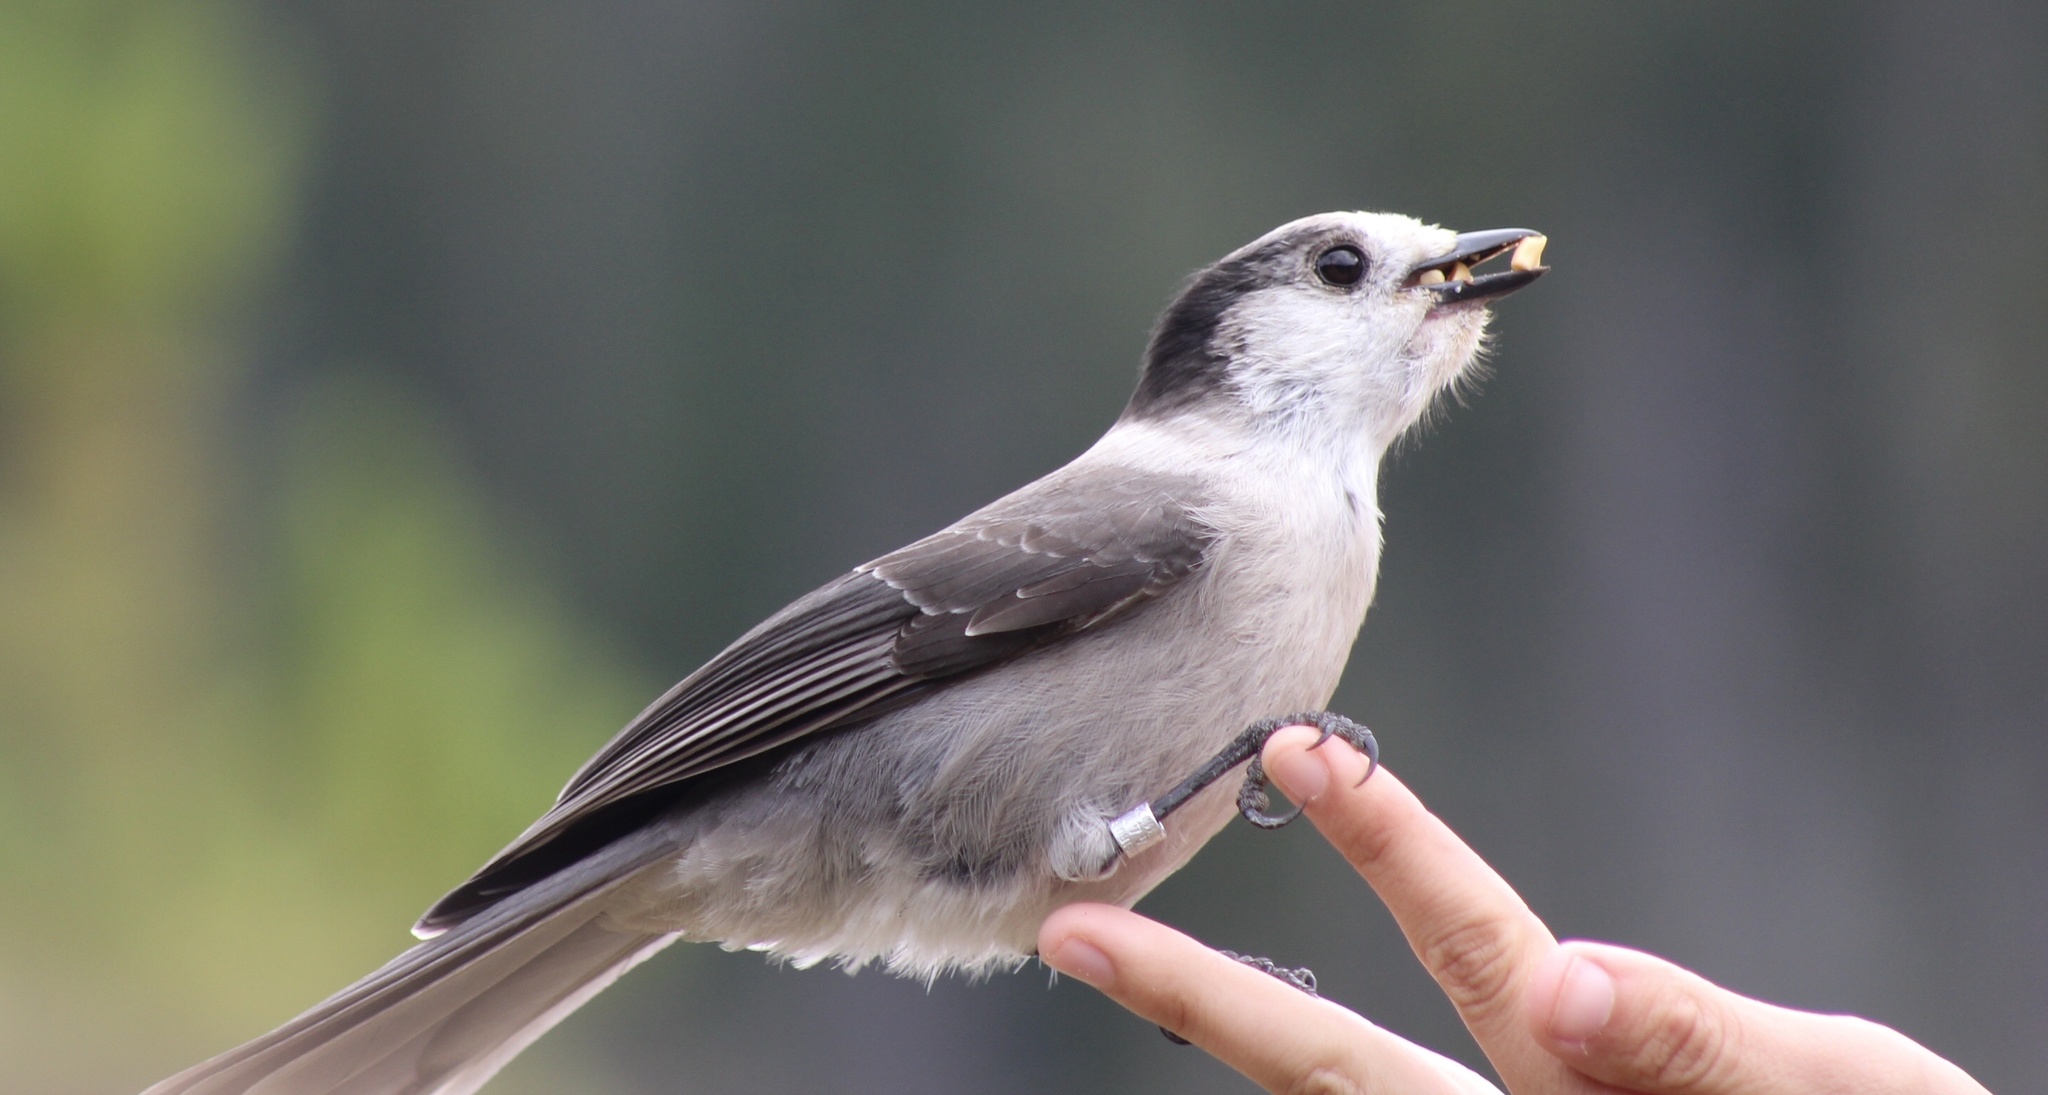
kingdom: Animalia
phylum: Chordata
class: Aves
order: Passeriformes
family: Corvidae
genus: Perisoreus
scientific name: Perisoreus canadensis
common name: Gray jay
